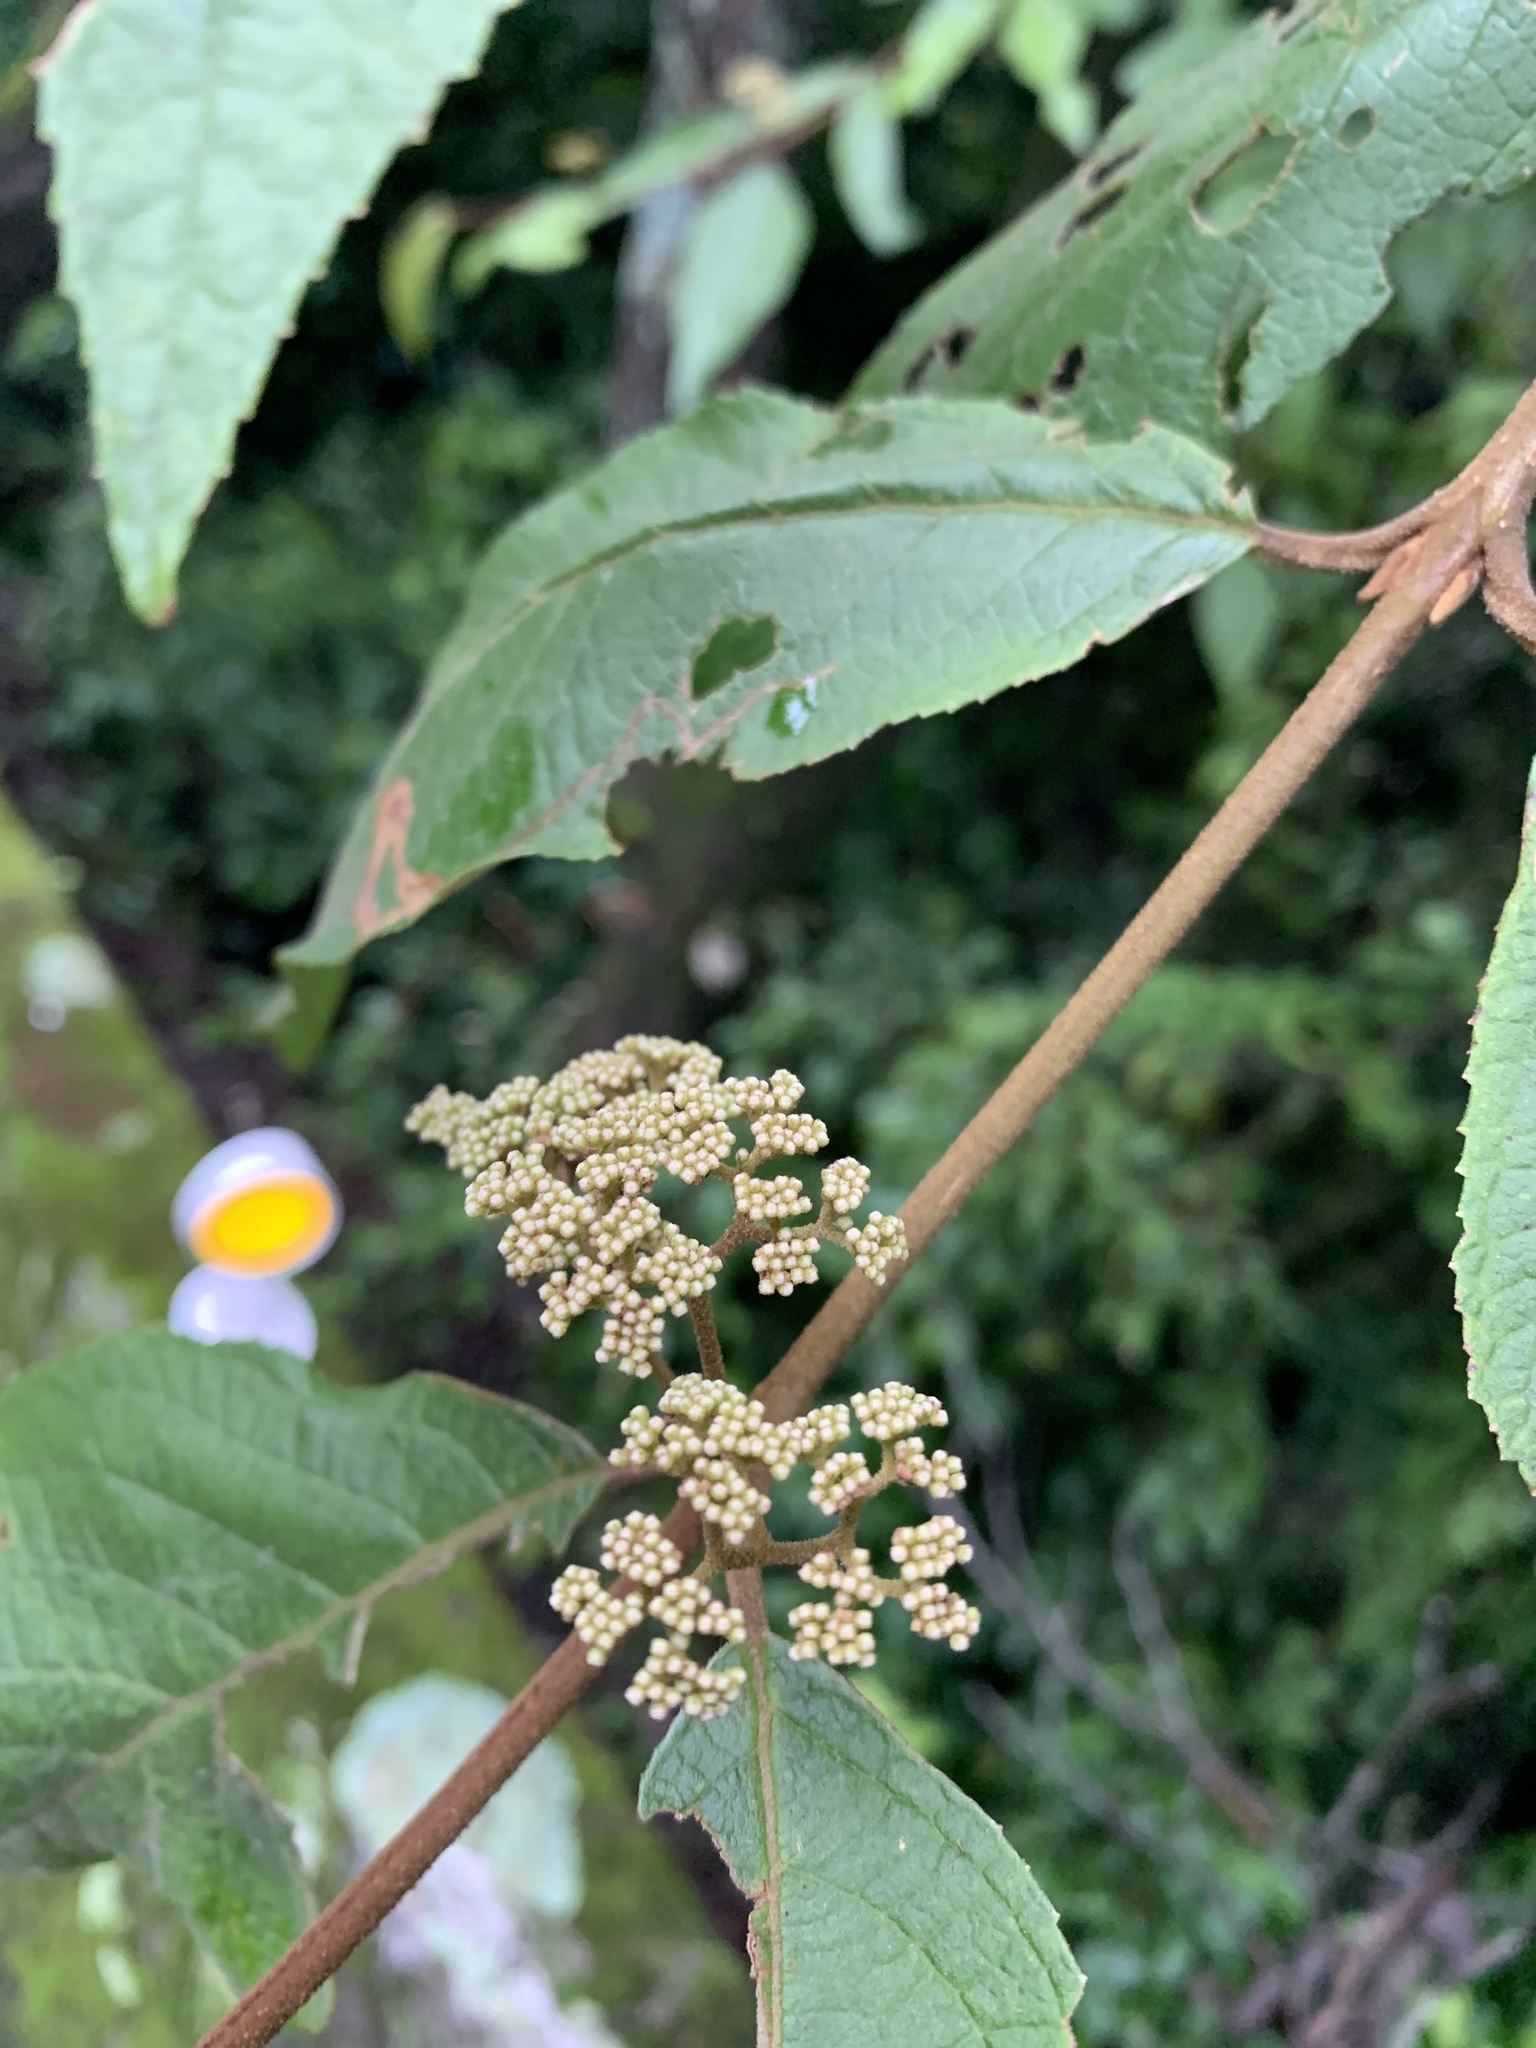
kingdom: Plantae
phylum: Tracheophyta
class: Magnoliopsida
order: Lamiales
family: Lamiaceae
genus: Callicarpa
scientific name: Callicarpa pedunculata
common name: Velvetleaf
